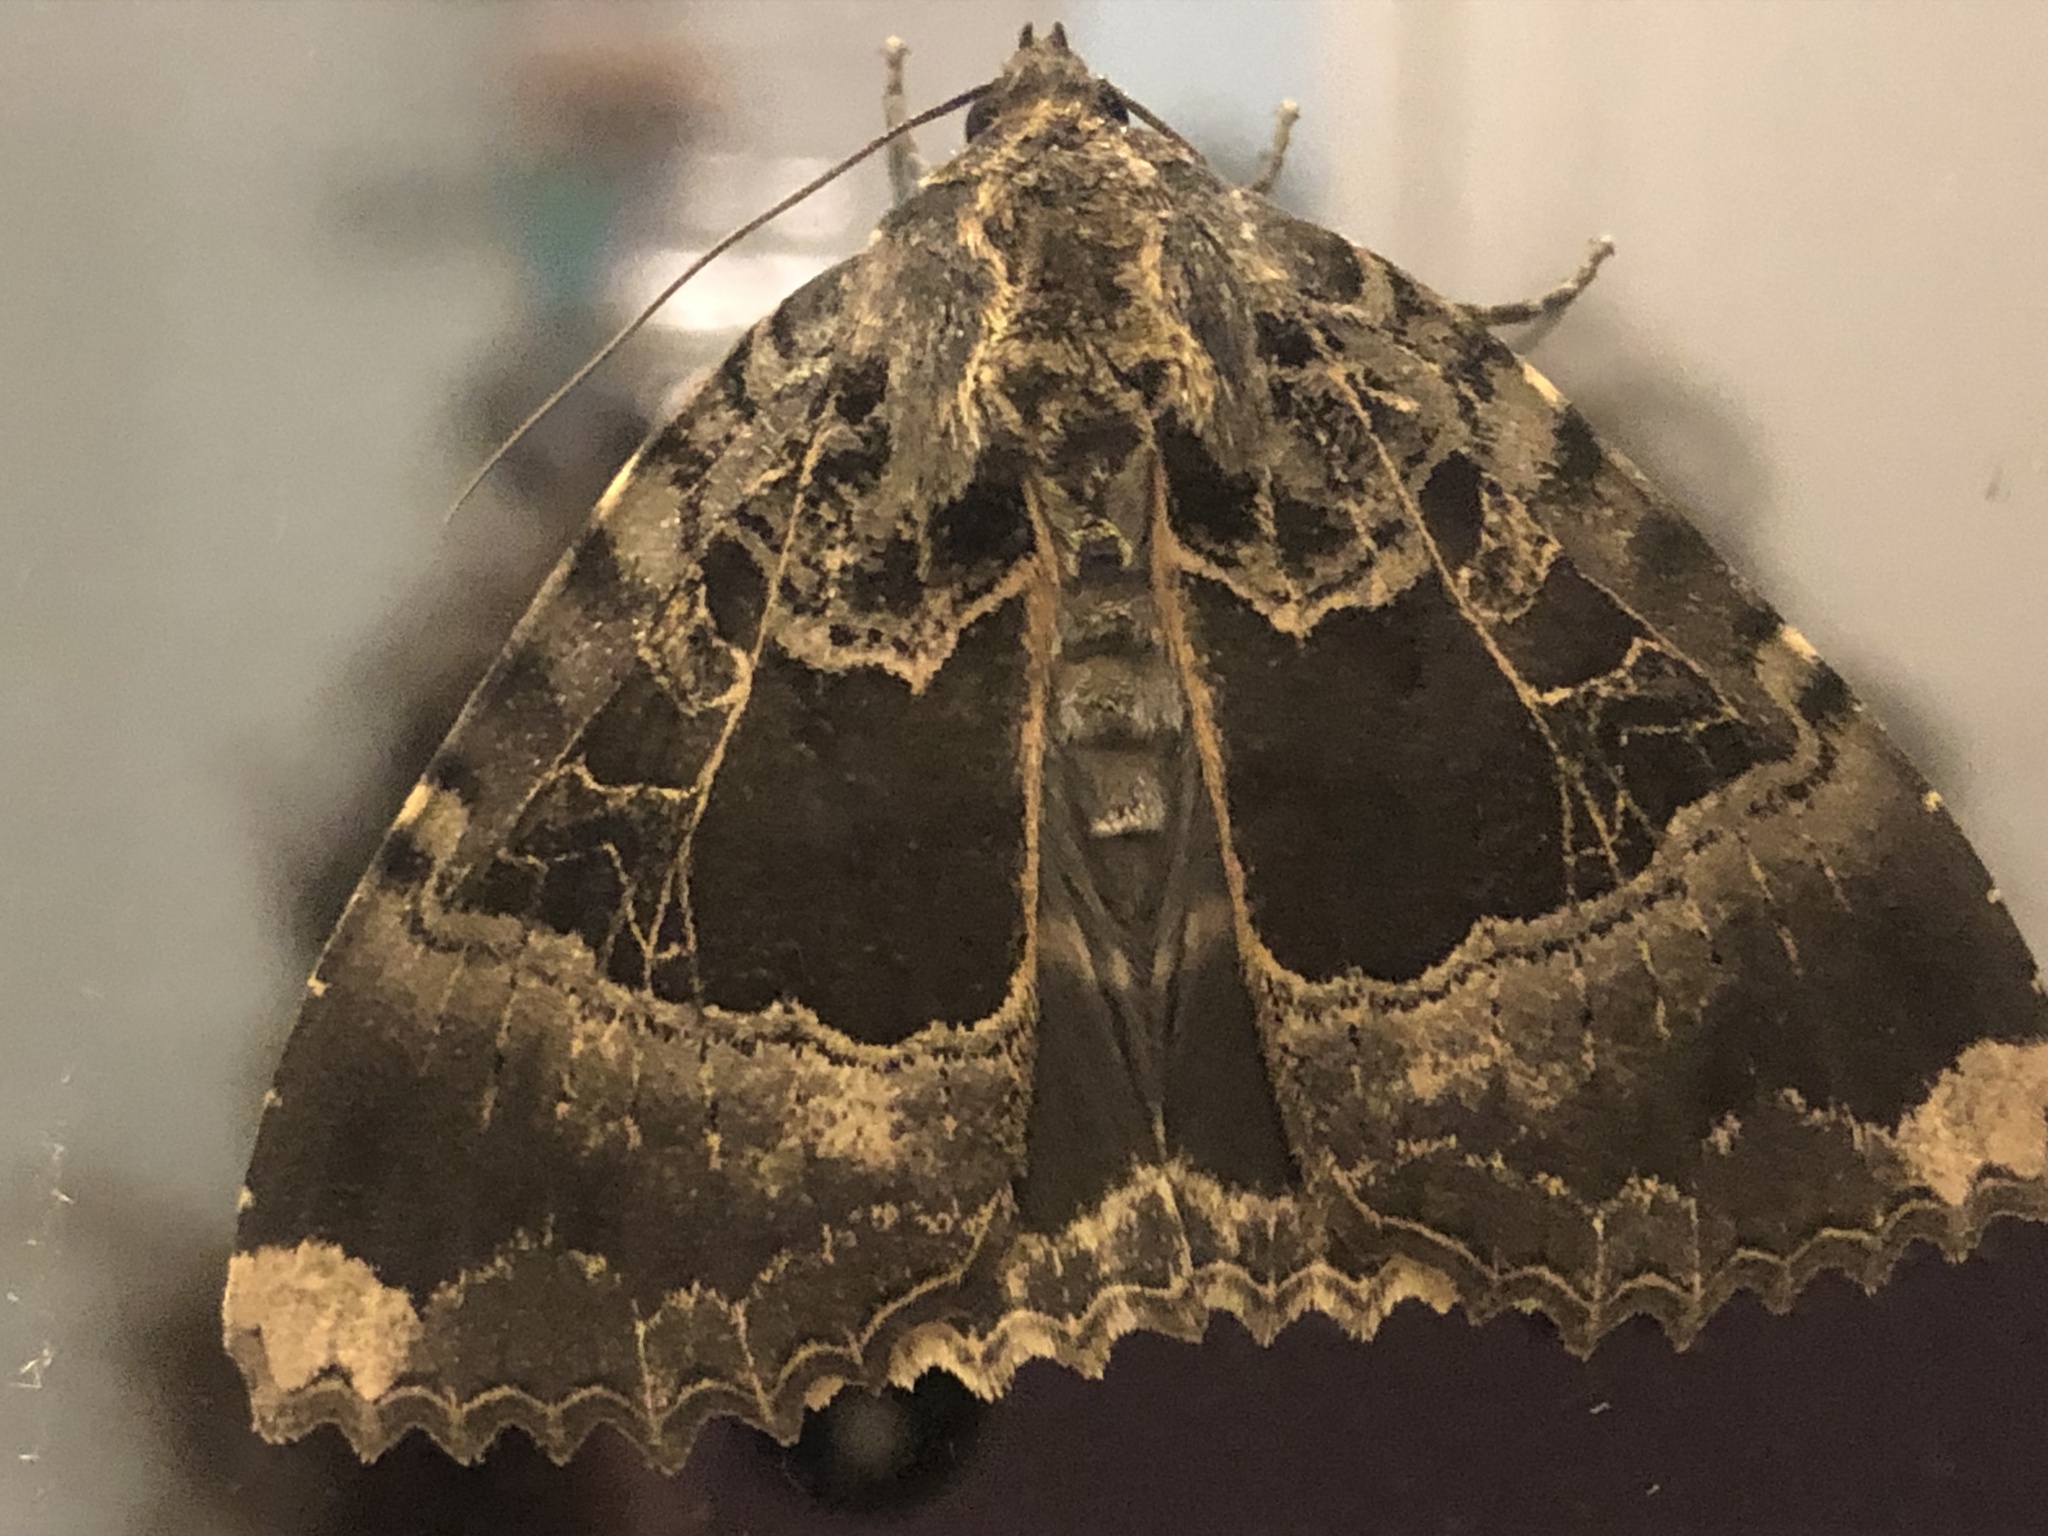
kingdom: Animalia
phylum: Arthropoda
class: Insecta
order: Lepidoptera
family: Noctuidae
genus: Mormo
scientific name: Mormo maura
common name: Old lady
